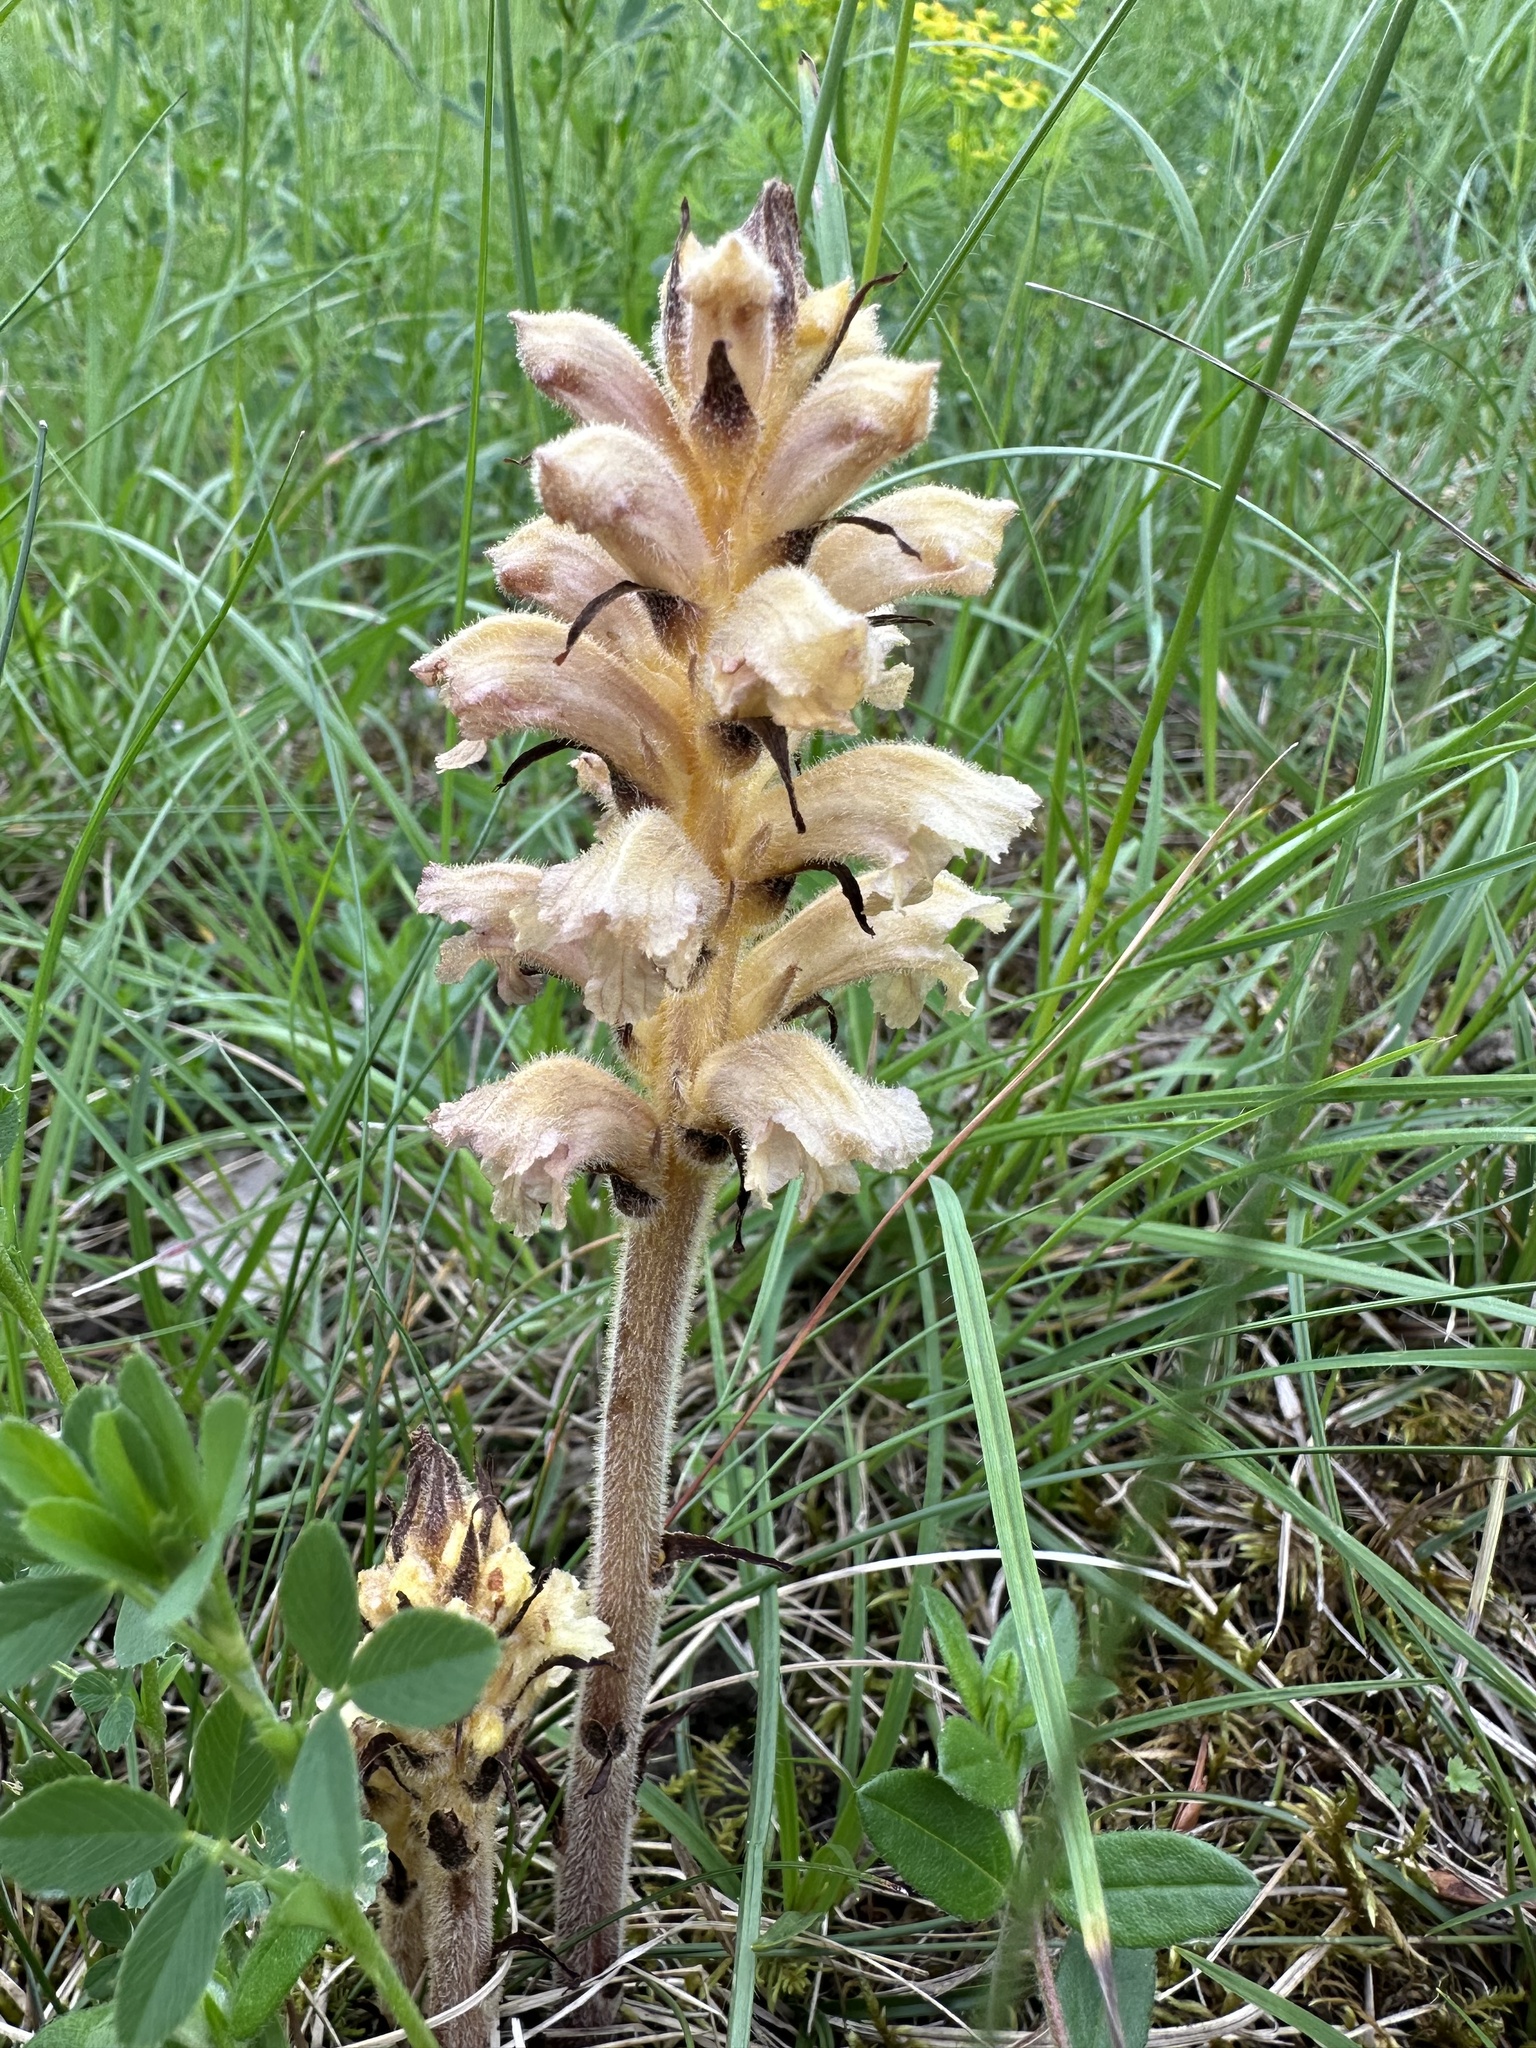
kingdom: Plantae
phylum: Tracheophyta
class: Magnoliopsida
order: Lamiales
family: Orobanchaceae
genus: Orobanche
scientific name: Orobanche lutea
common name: Yellow broomrape
